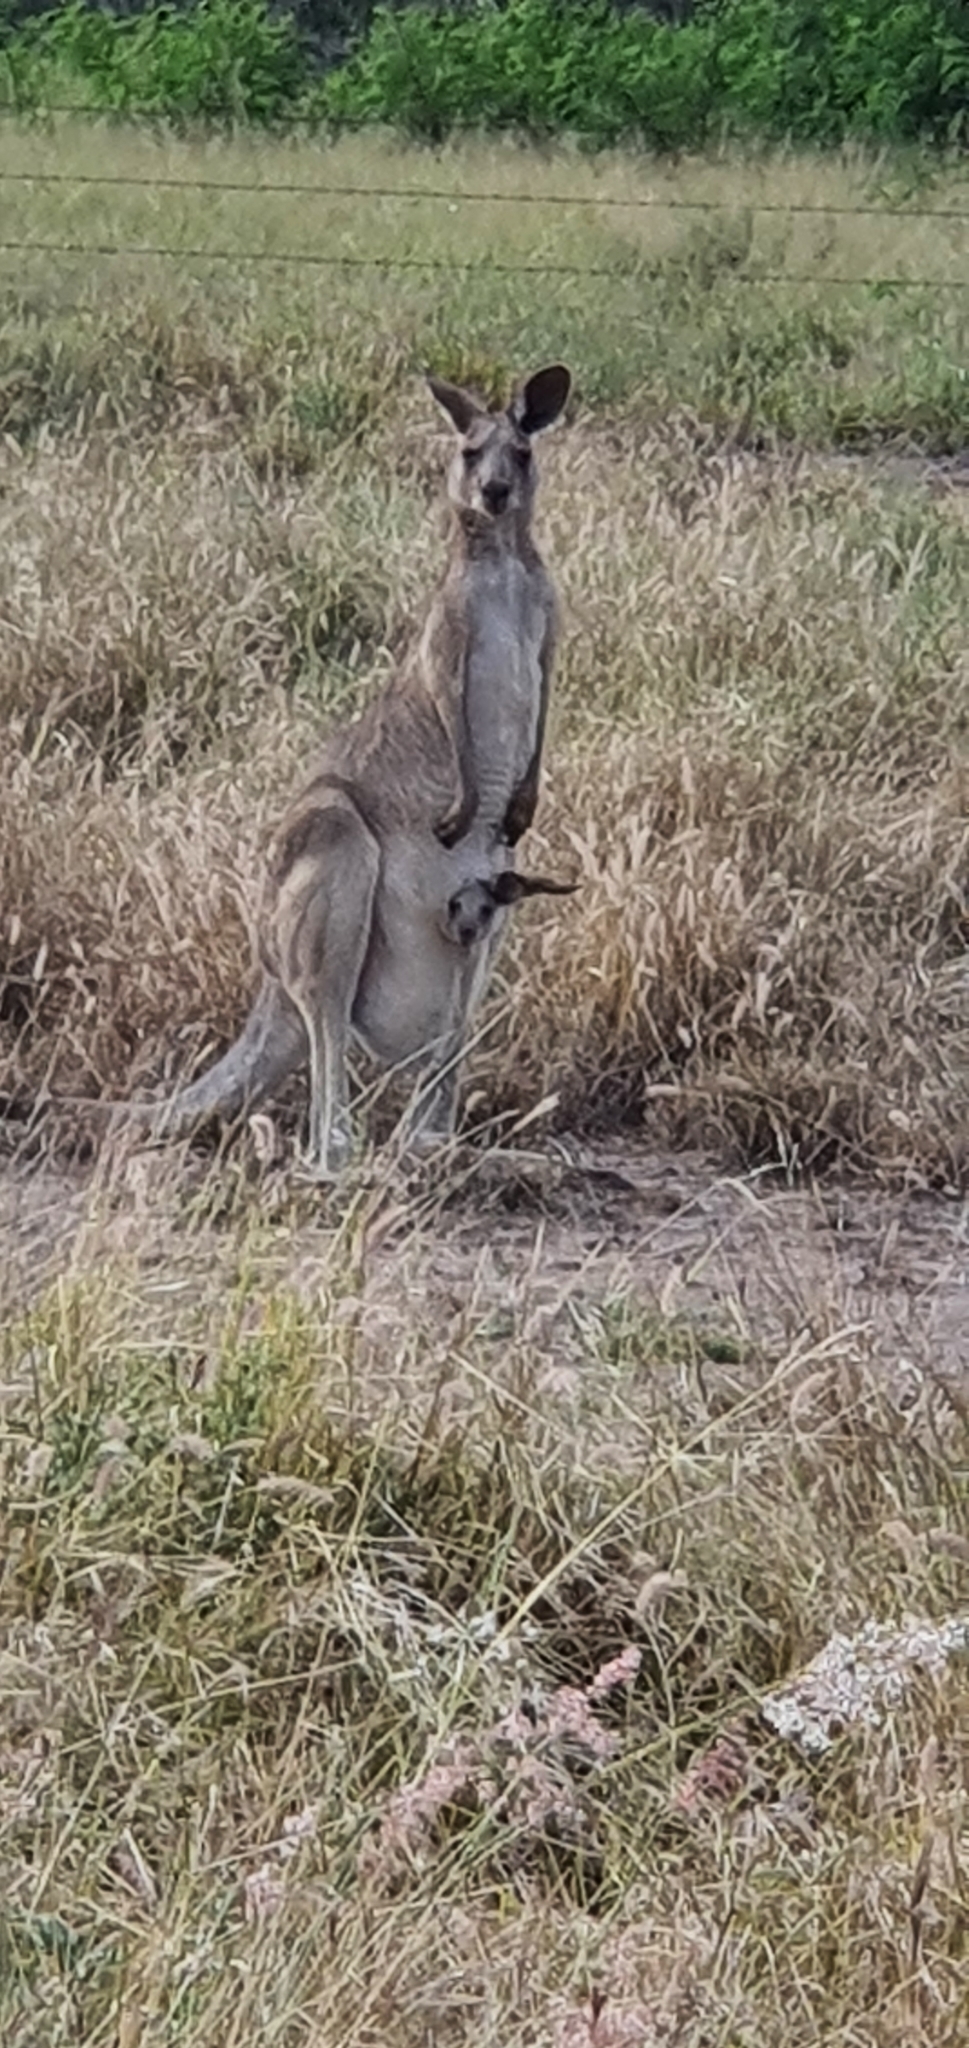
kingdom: Animalia
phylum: Chordata
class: Mammalia
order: Diprotodontia
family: Macropodidae
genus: Macropus
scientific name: Macropus giganteus
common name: Eastern grey kangaroo
